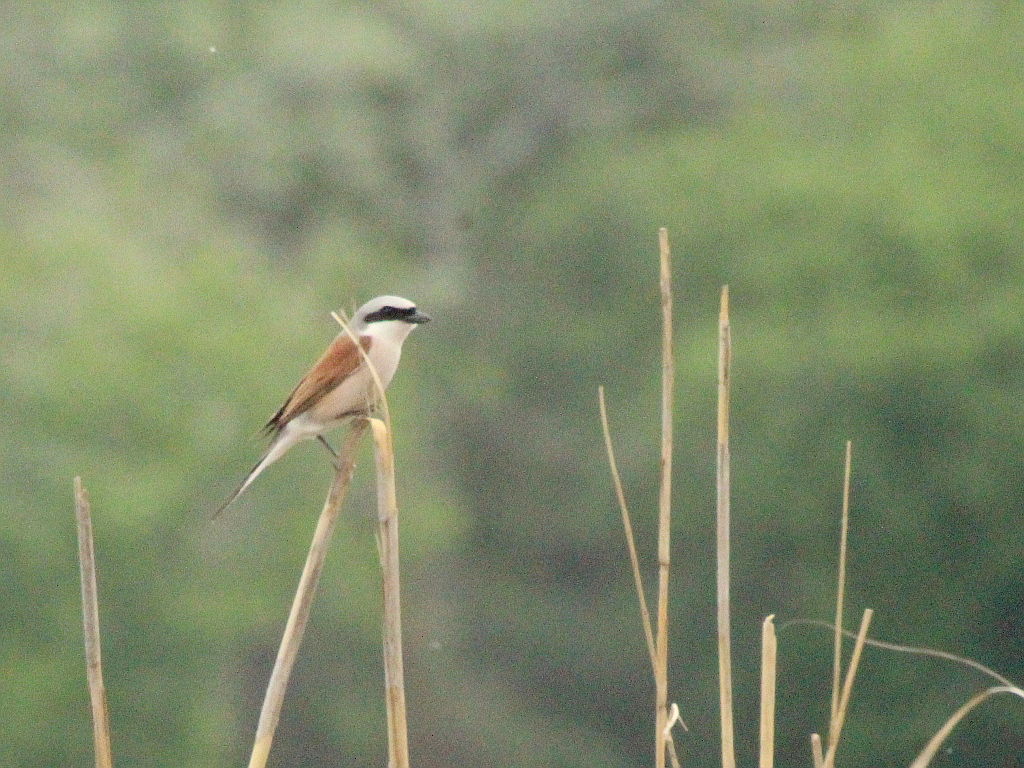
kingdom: Animalia
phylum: Chordata
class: Aves
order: Passeriformes
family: Laniidae
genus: Lanius
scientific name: Lanius collurio
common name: Red-backed shrike
